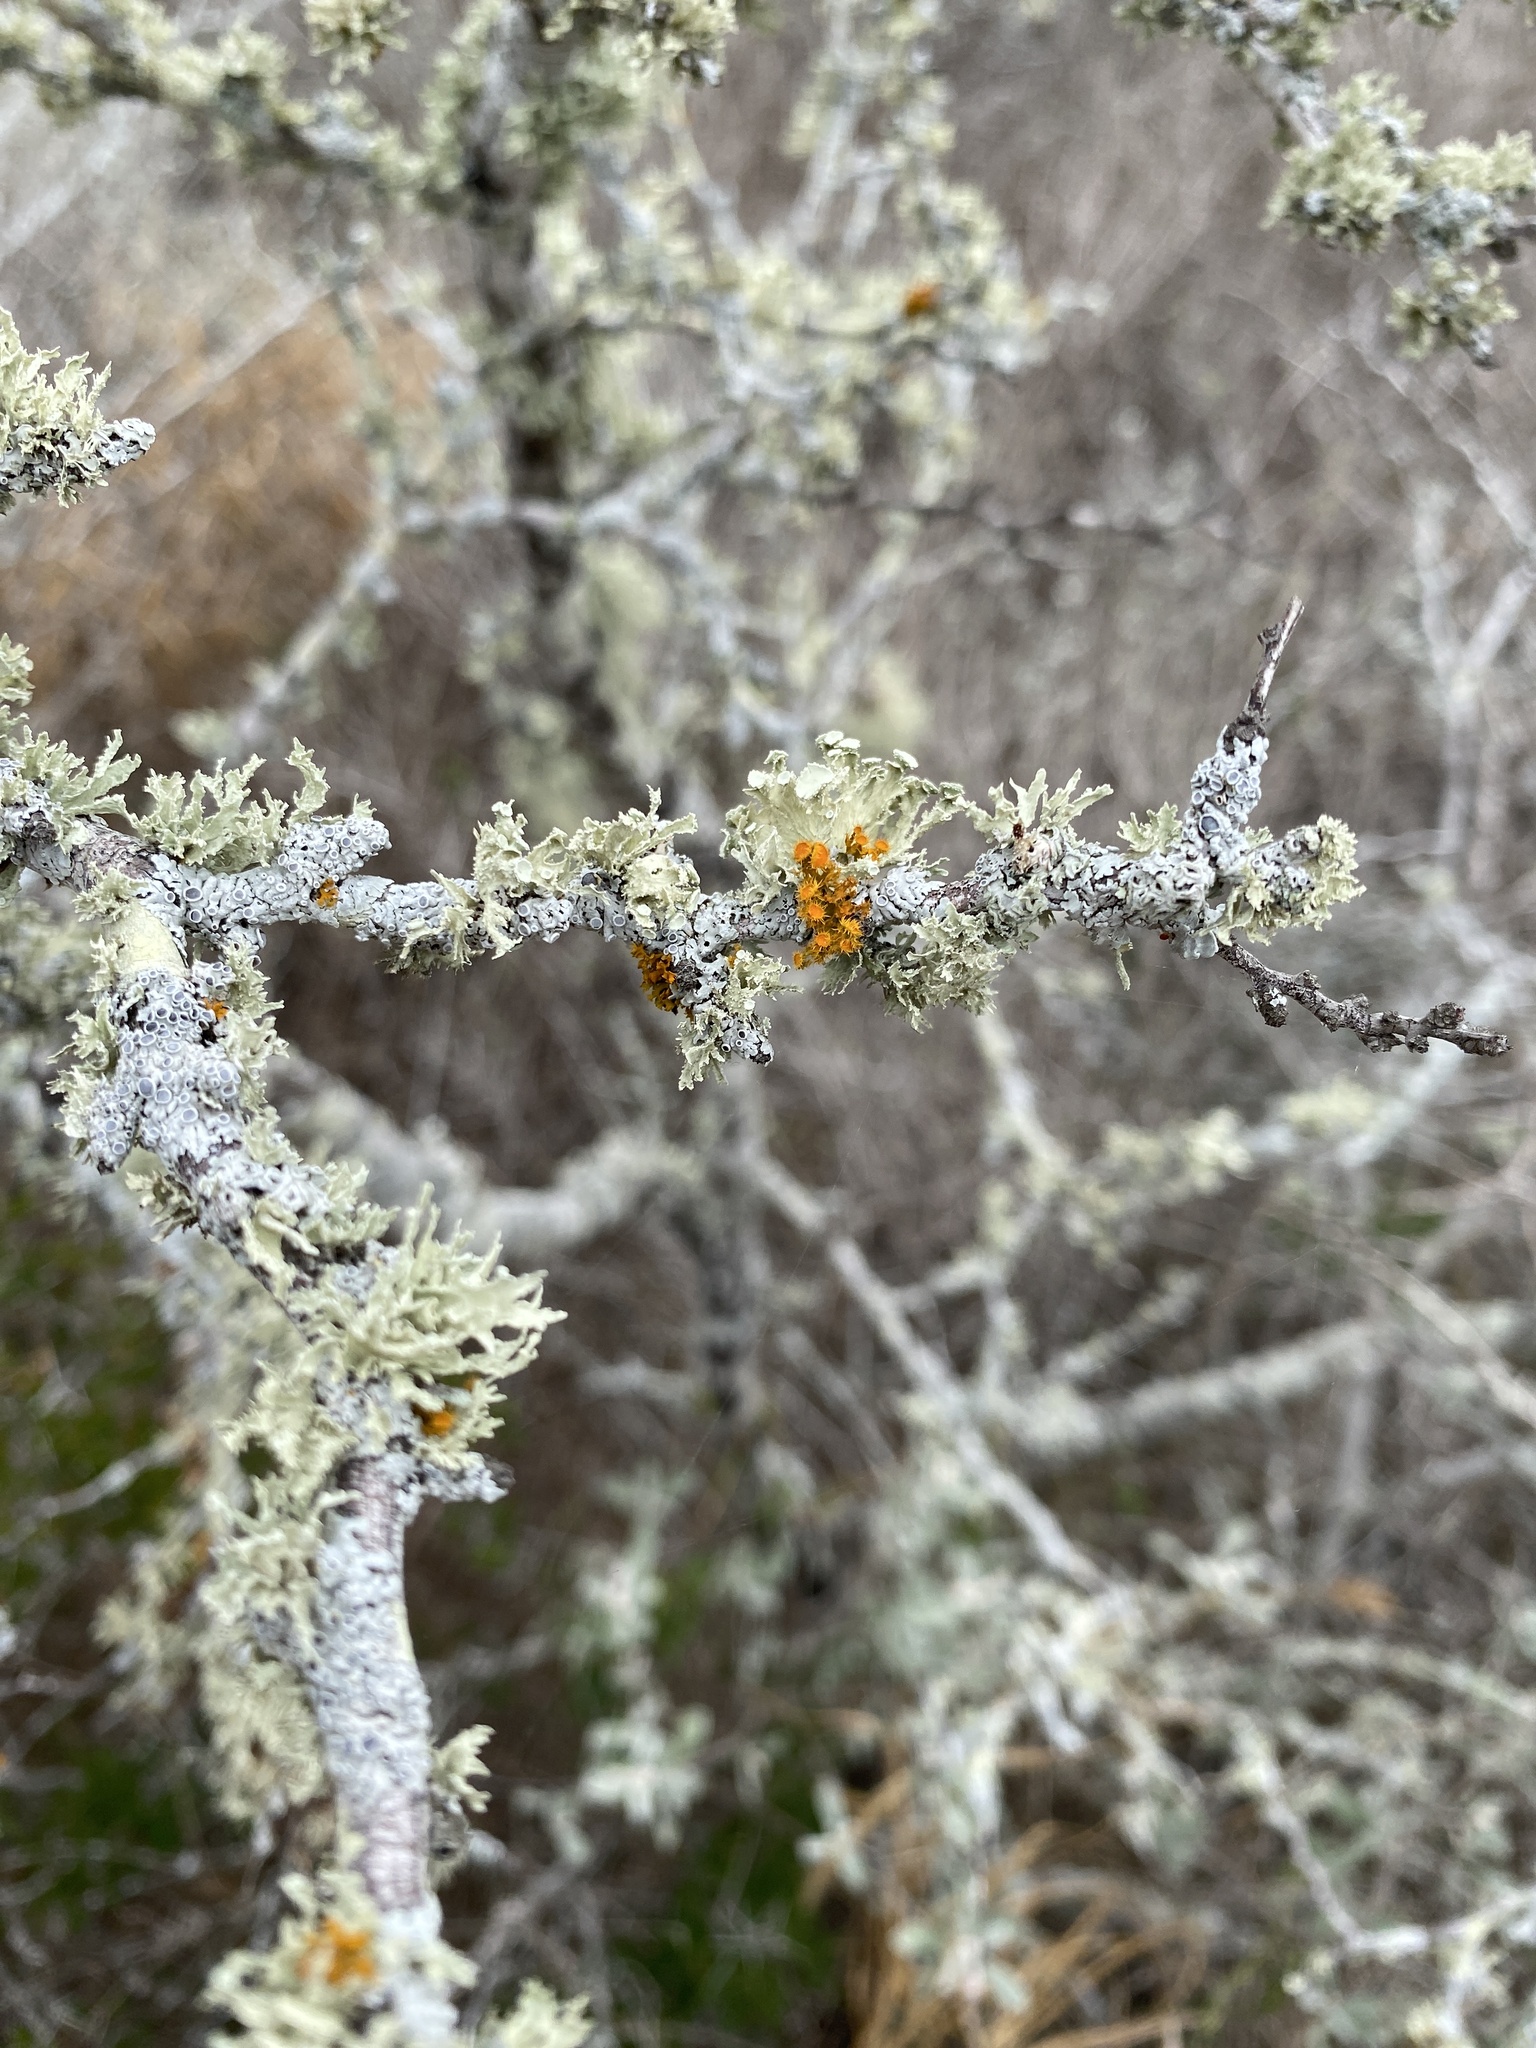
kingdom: Fungi
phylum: Ascomycota
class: Lecanoromycetes
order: Teloschistales
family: Teloschistaceae
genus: Niorma
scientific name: Niorma chrysophthalma
